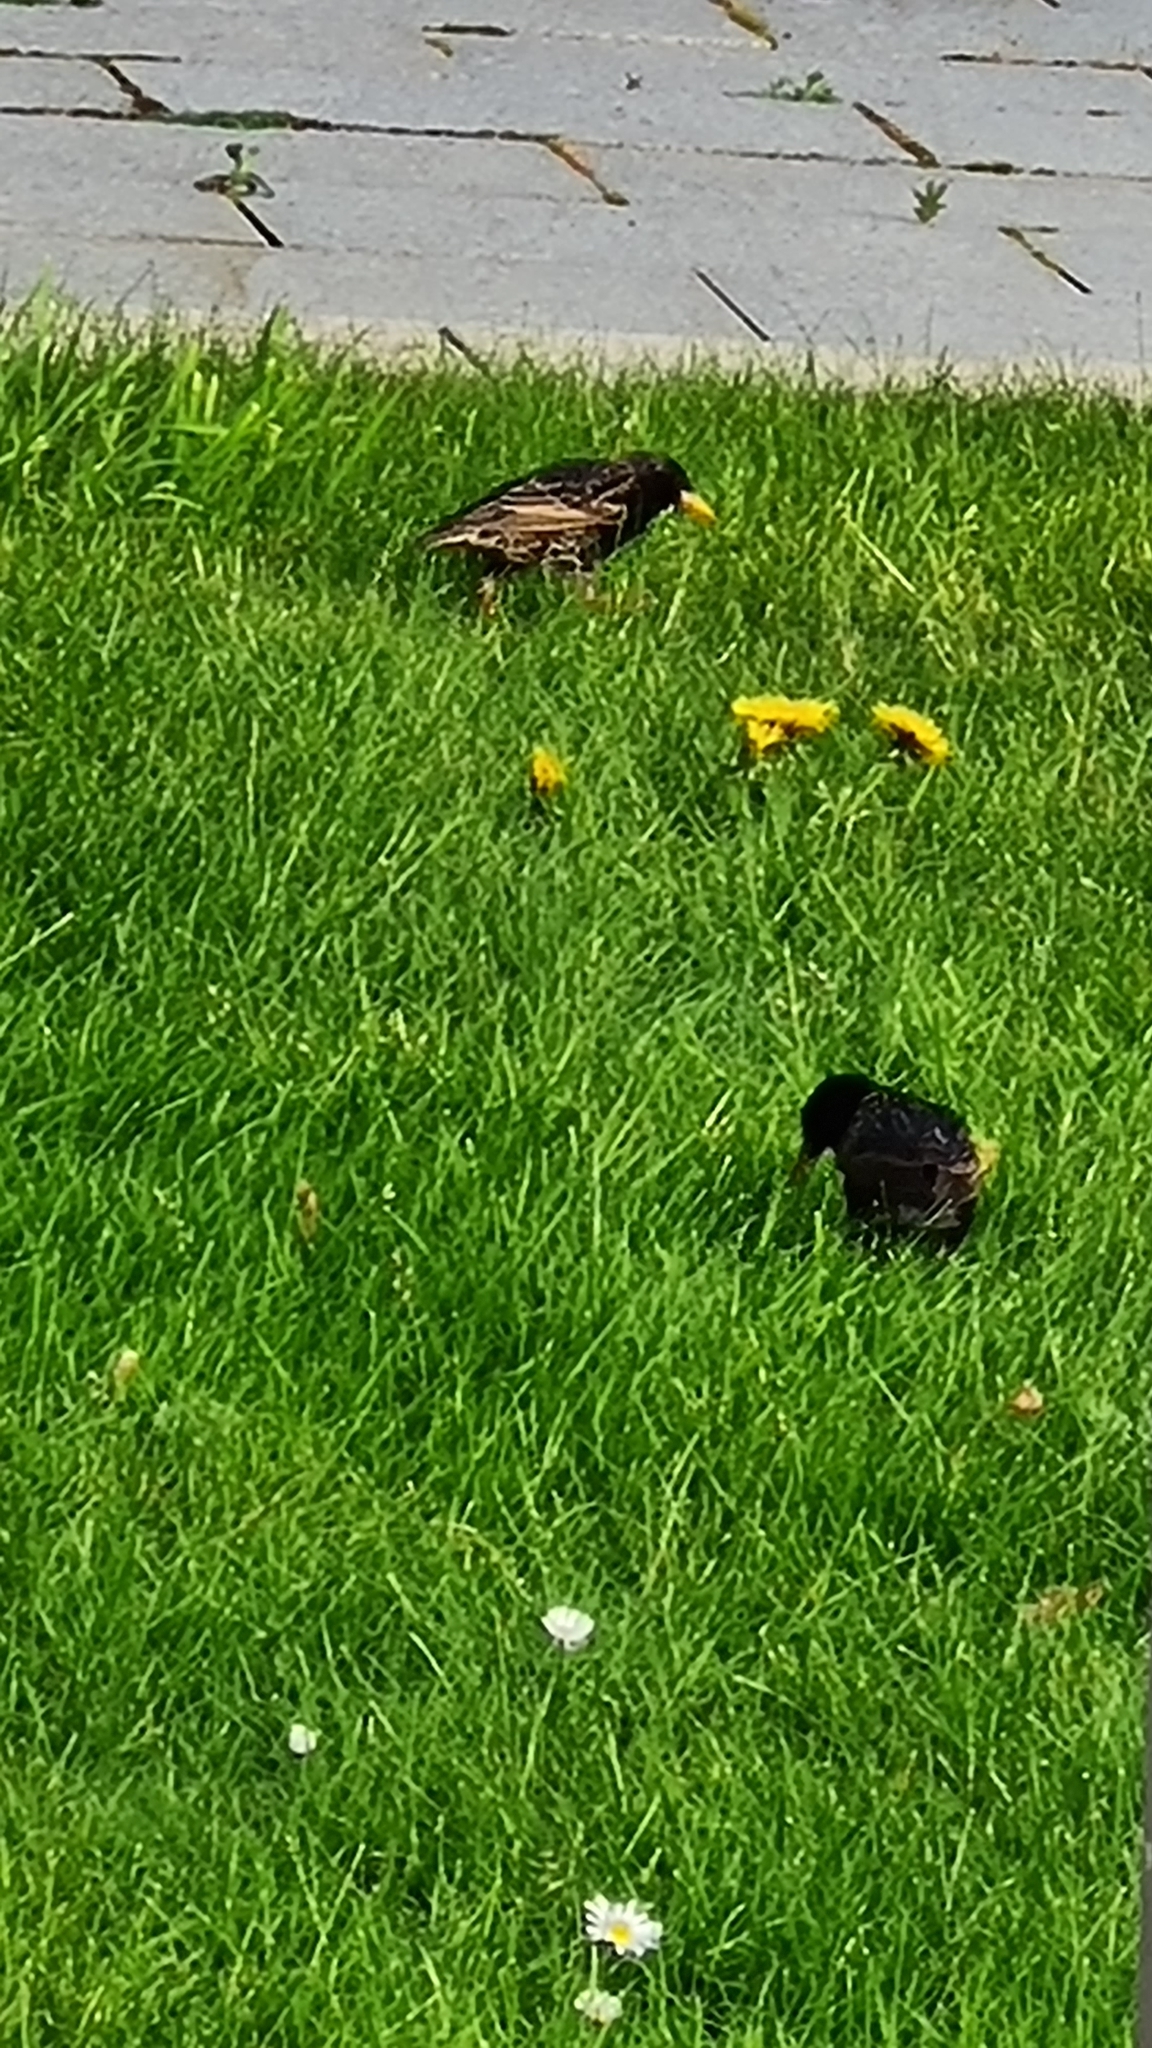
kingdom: Animalia
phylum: Chordata
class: Aves
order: Passeriformes
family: Sturnidae
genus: Sturnus
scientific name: Sturnus vulgaris
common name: Common starling
